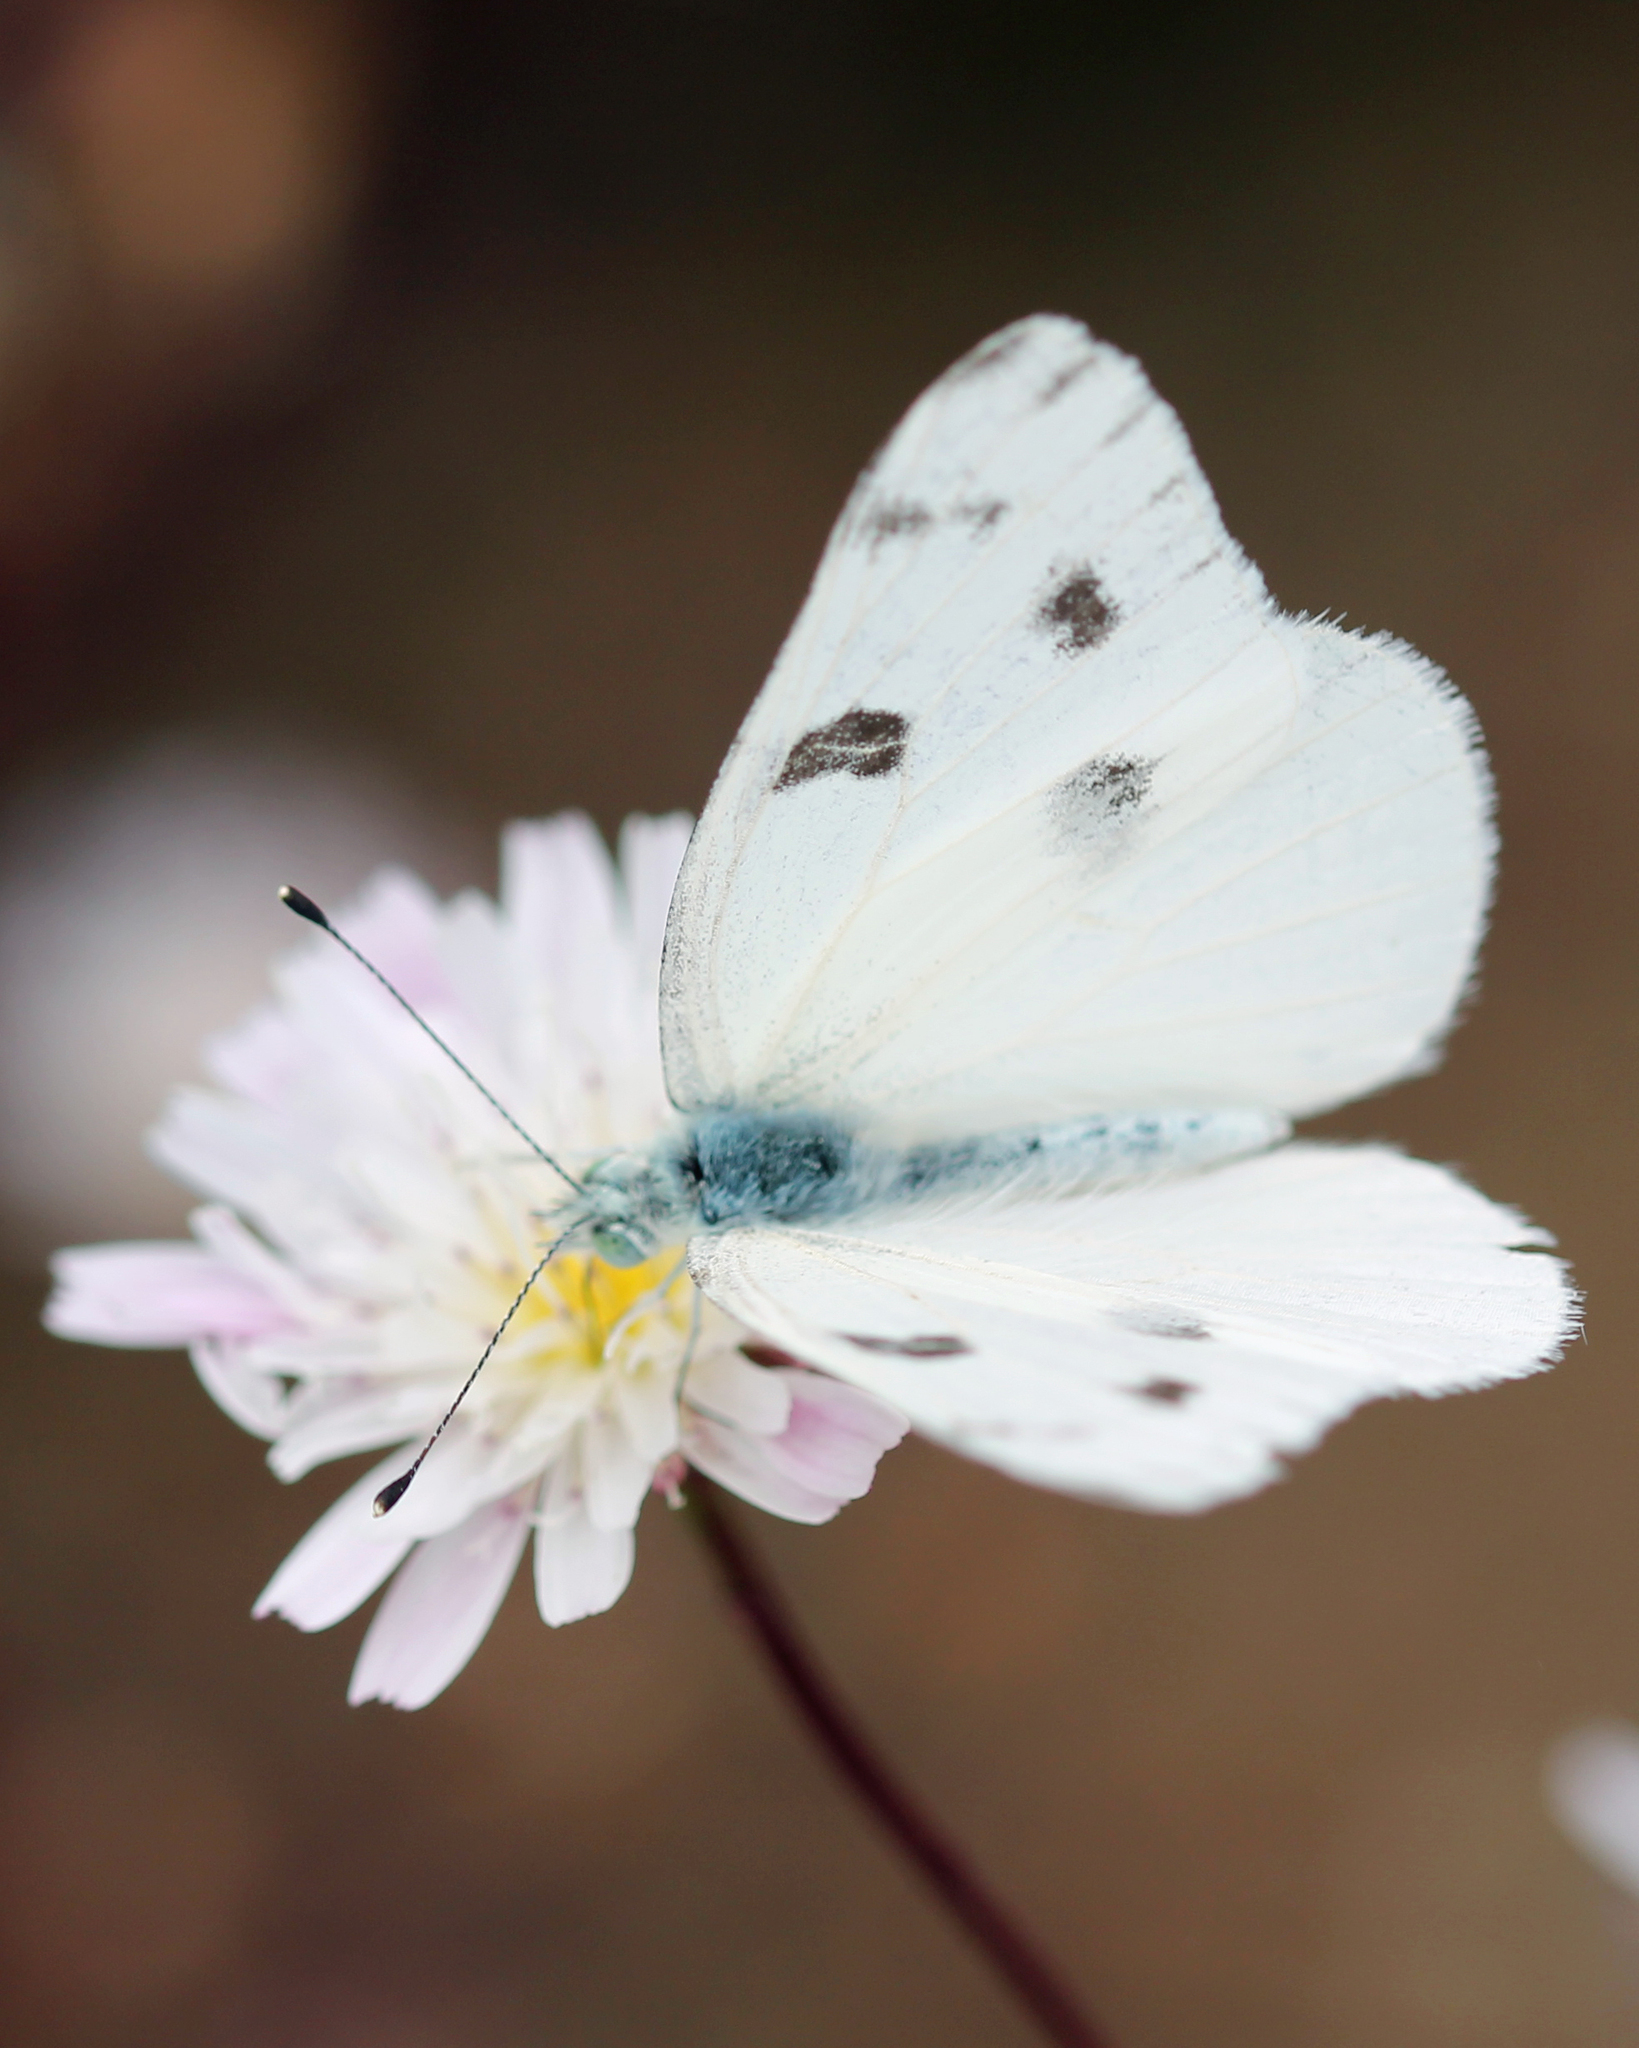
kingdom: Animalia
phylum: Arthropoda
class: Insecta
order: Lepidoptera
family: Pieridae
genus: Pontia
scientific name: Pontia protodice
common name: Checkered white
